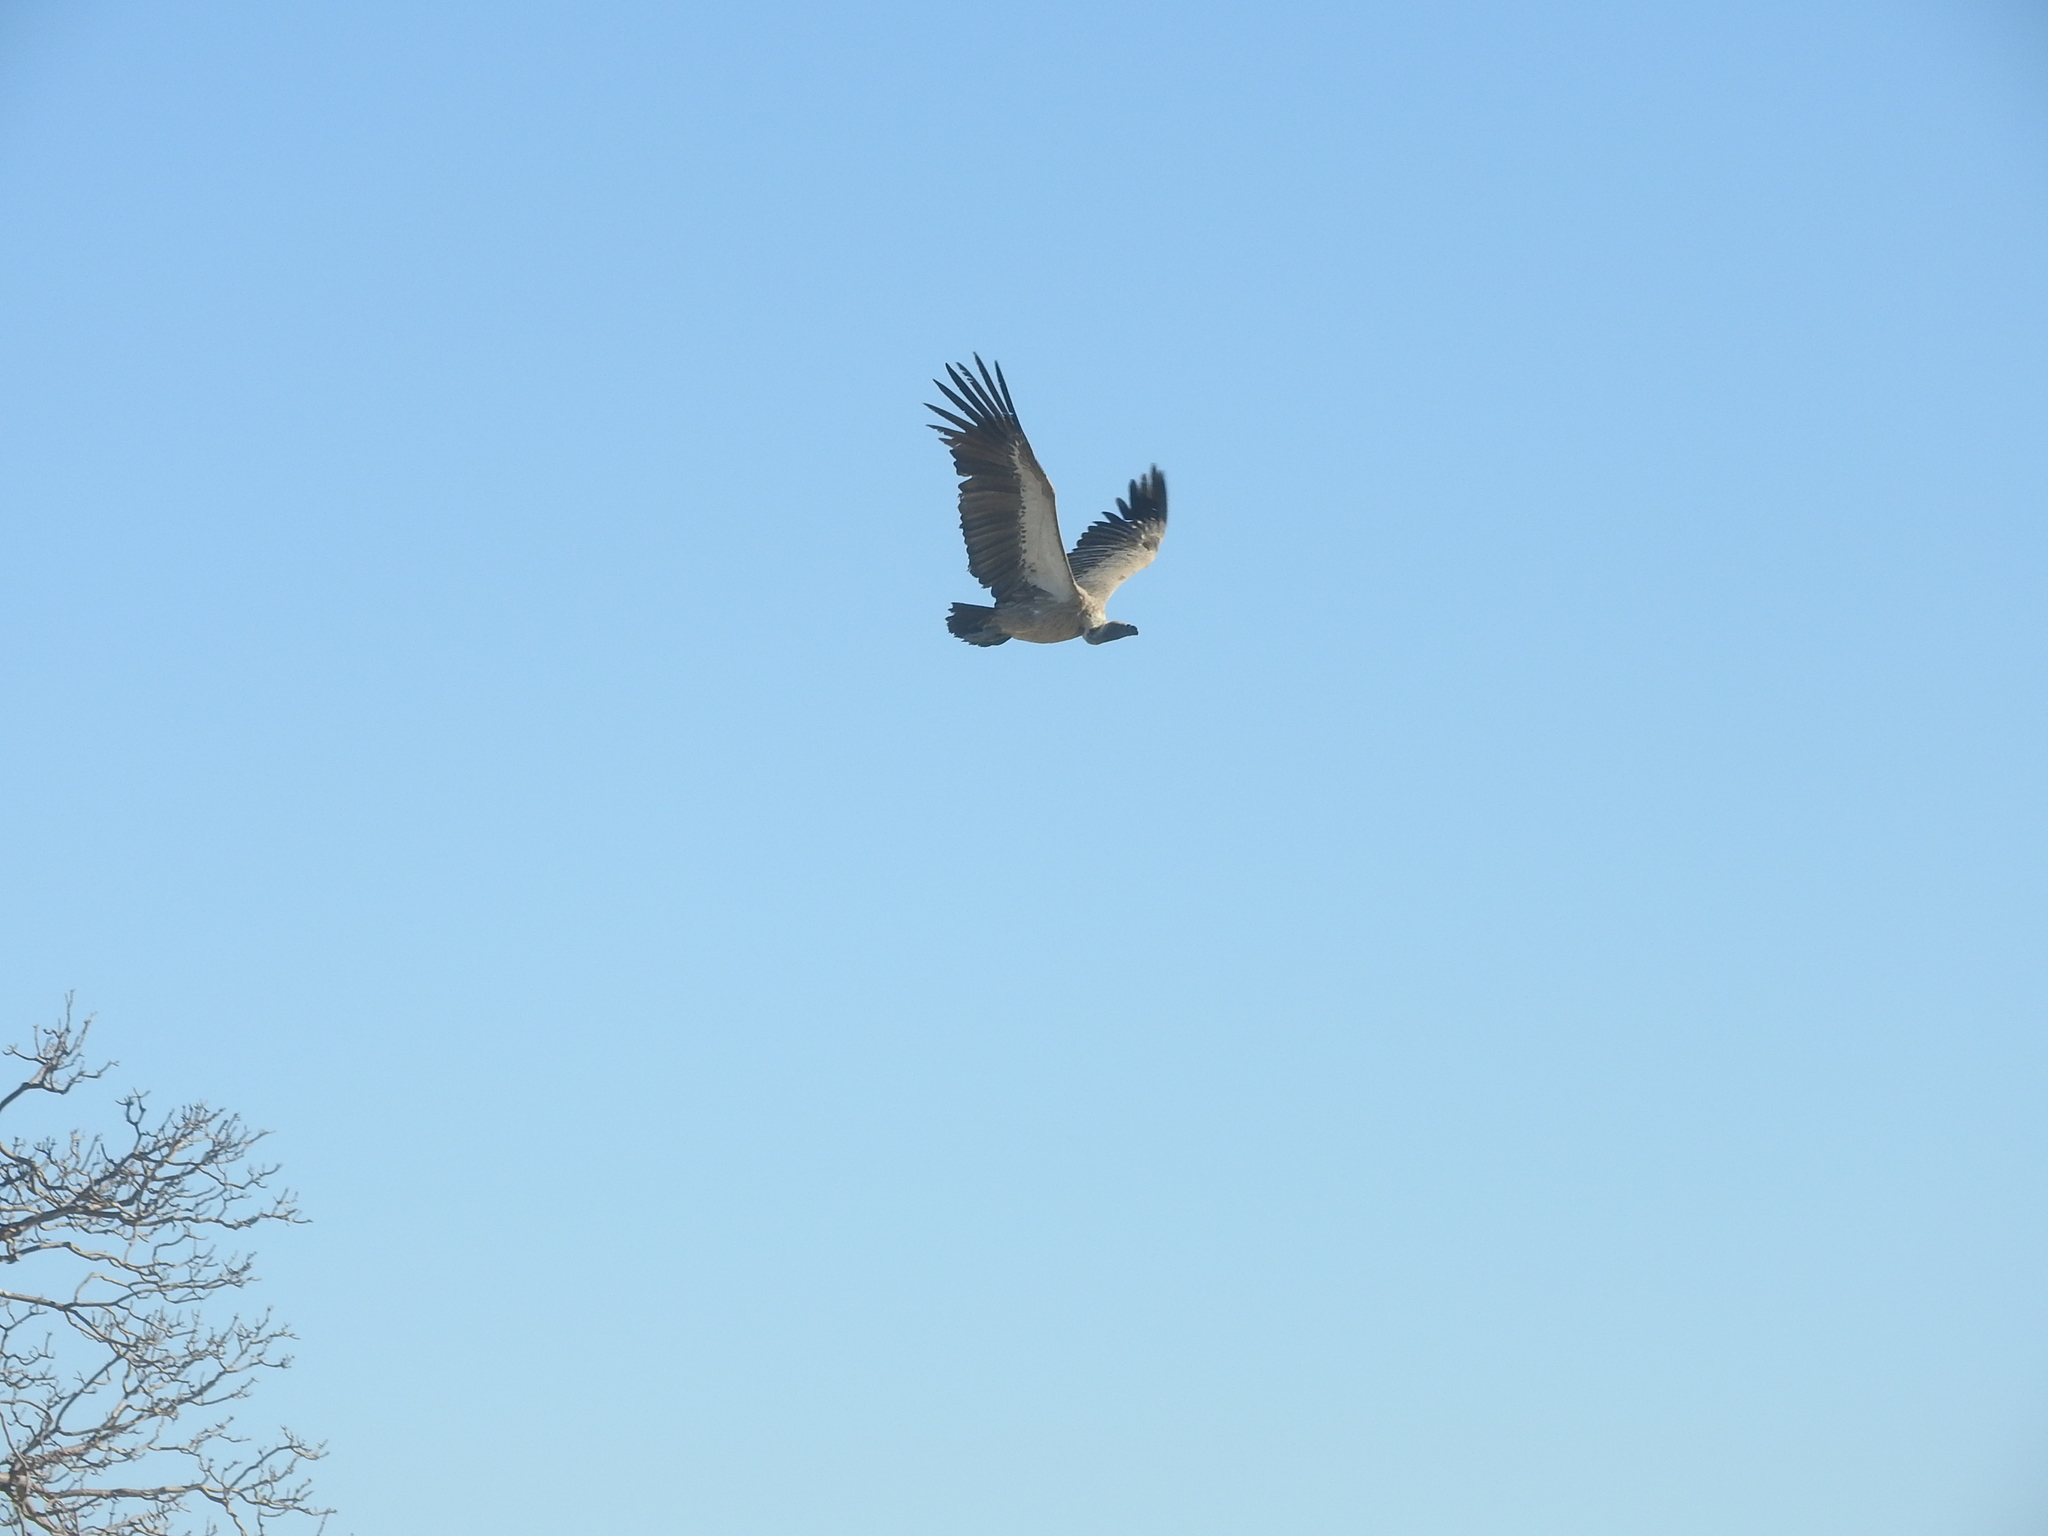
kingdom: Animalia
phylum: Chordata
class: Aves
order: Accipitriformes
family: Accipitridae
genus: Gyps
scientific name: Gyps africanus
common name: White-backed vulture
